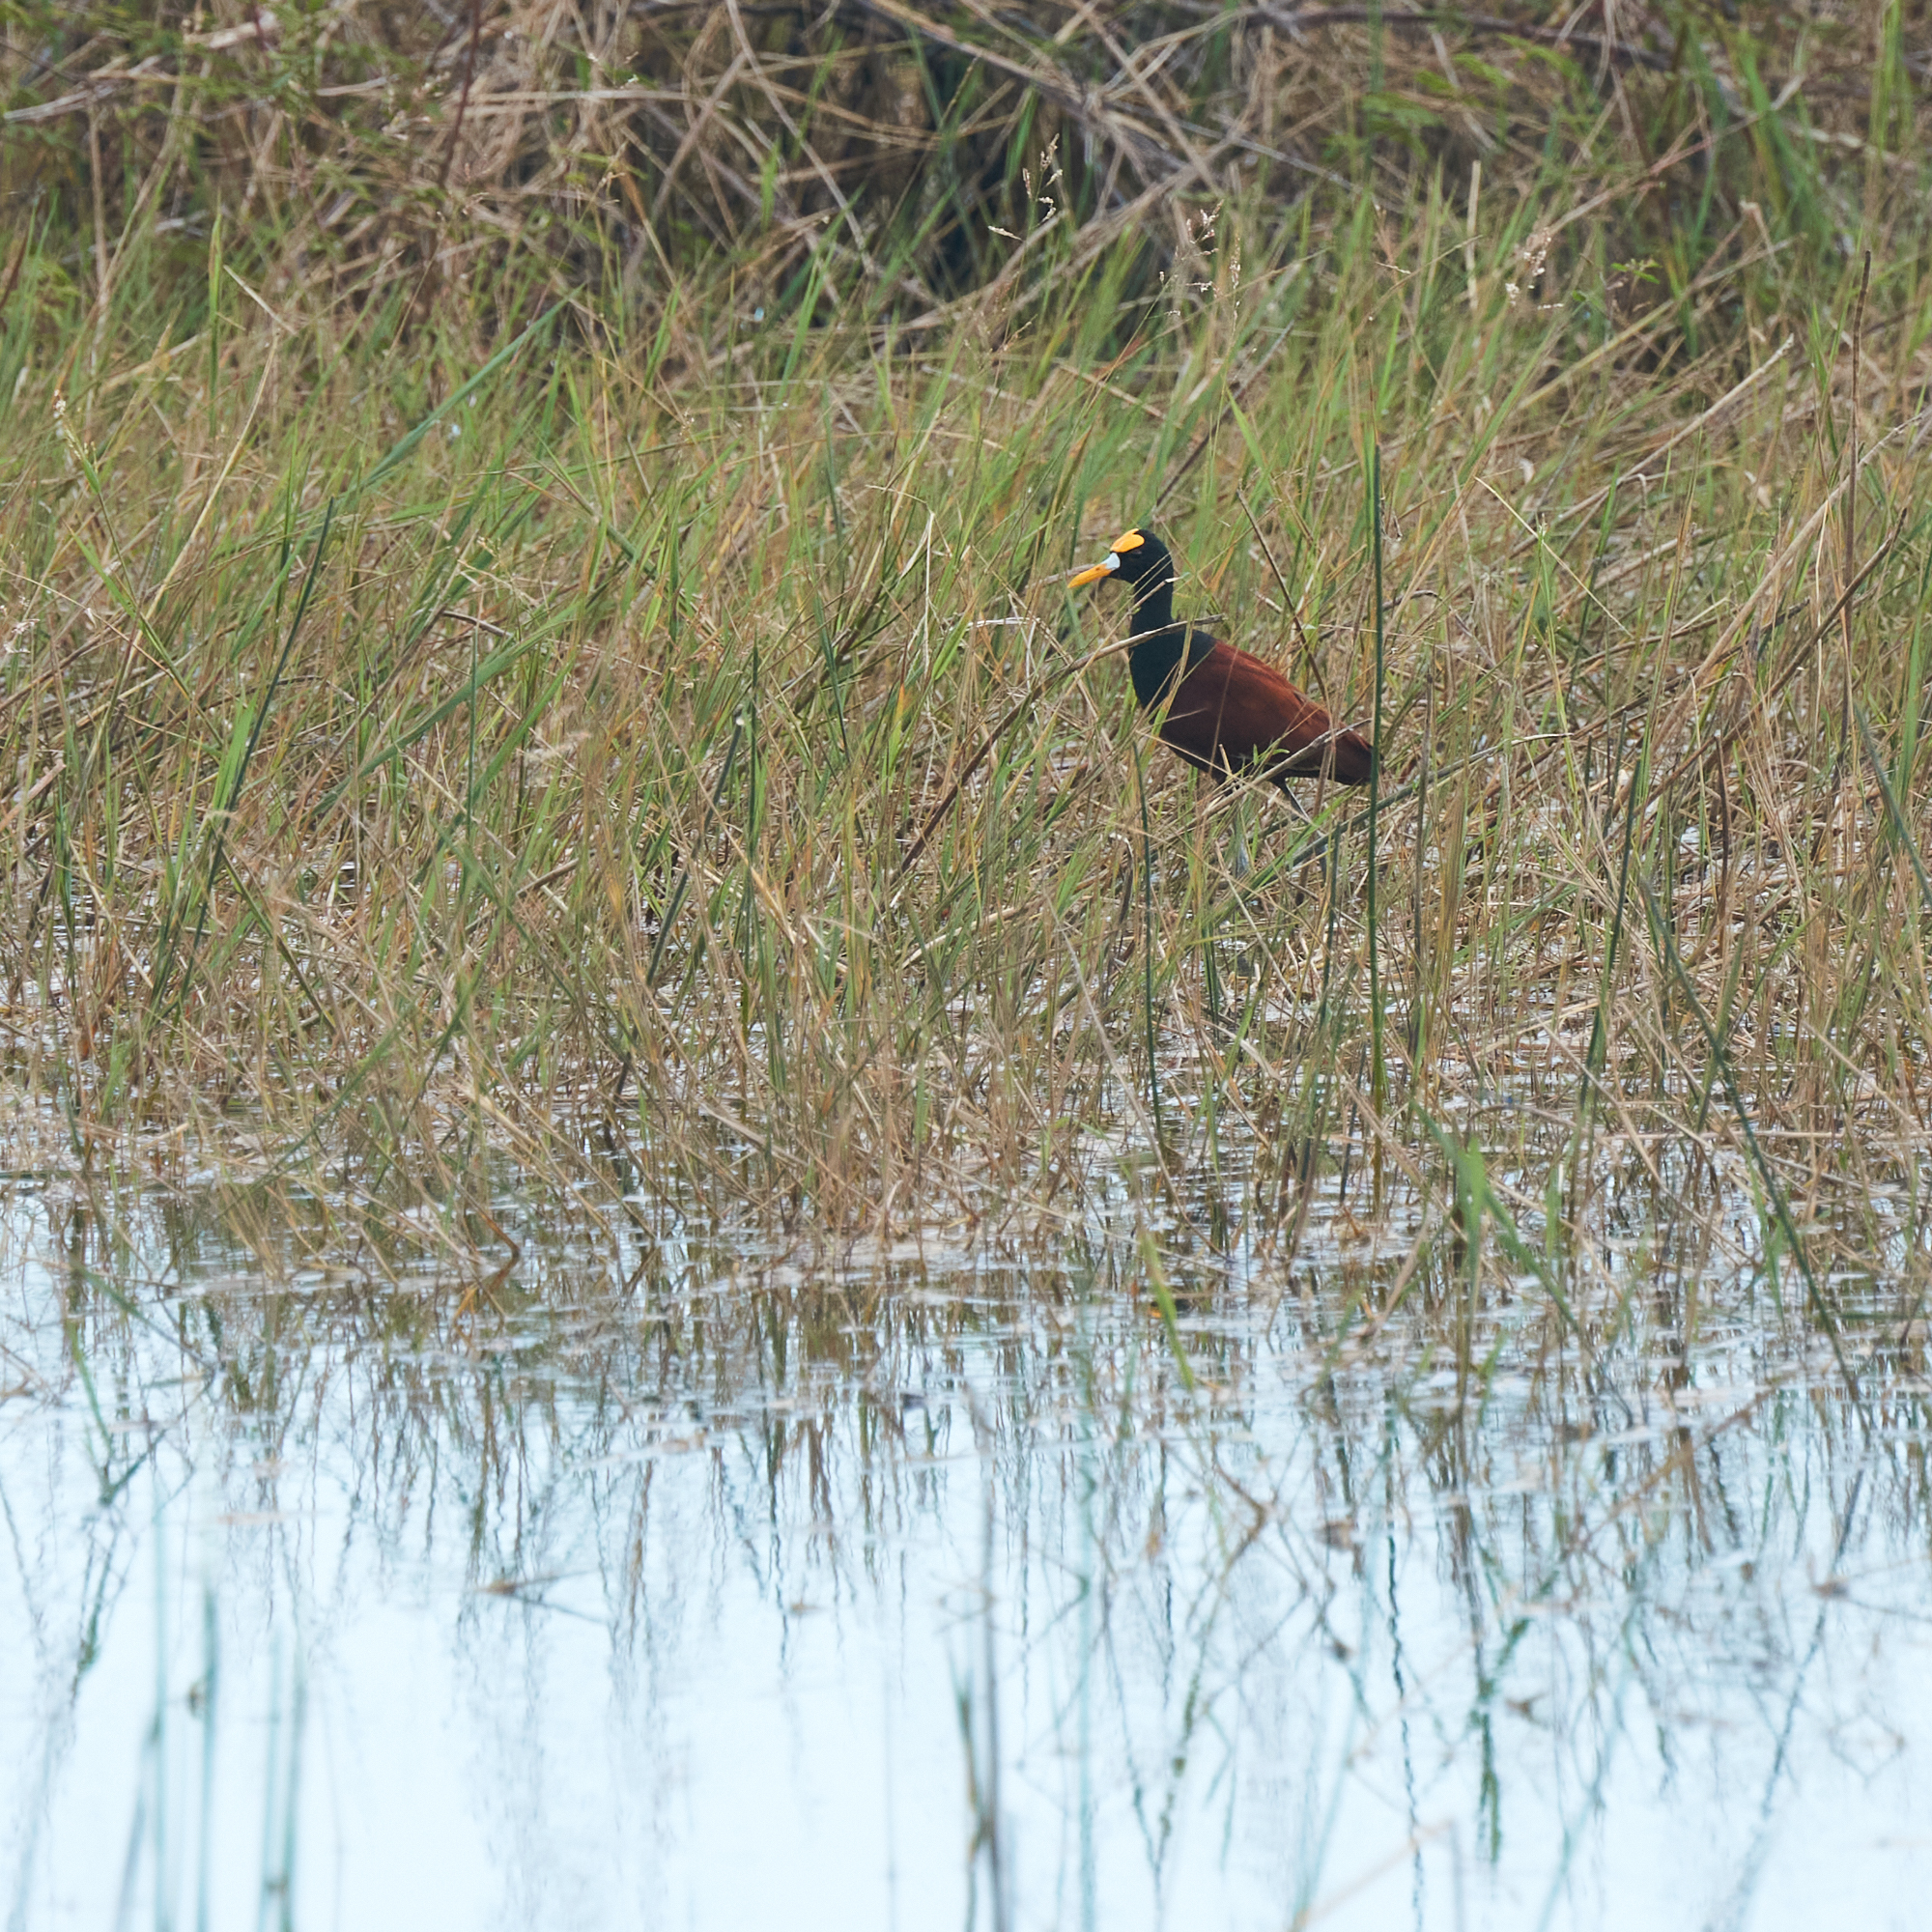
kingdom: Animalia
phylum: Chordata
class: Aves
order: Charadriiformes
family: Jacanidae
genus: Jacana
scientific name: Jacana spinosa
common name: Northern jacana
